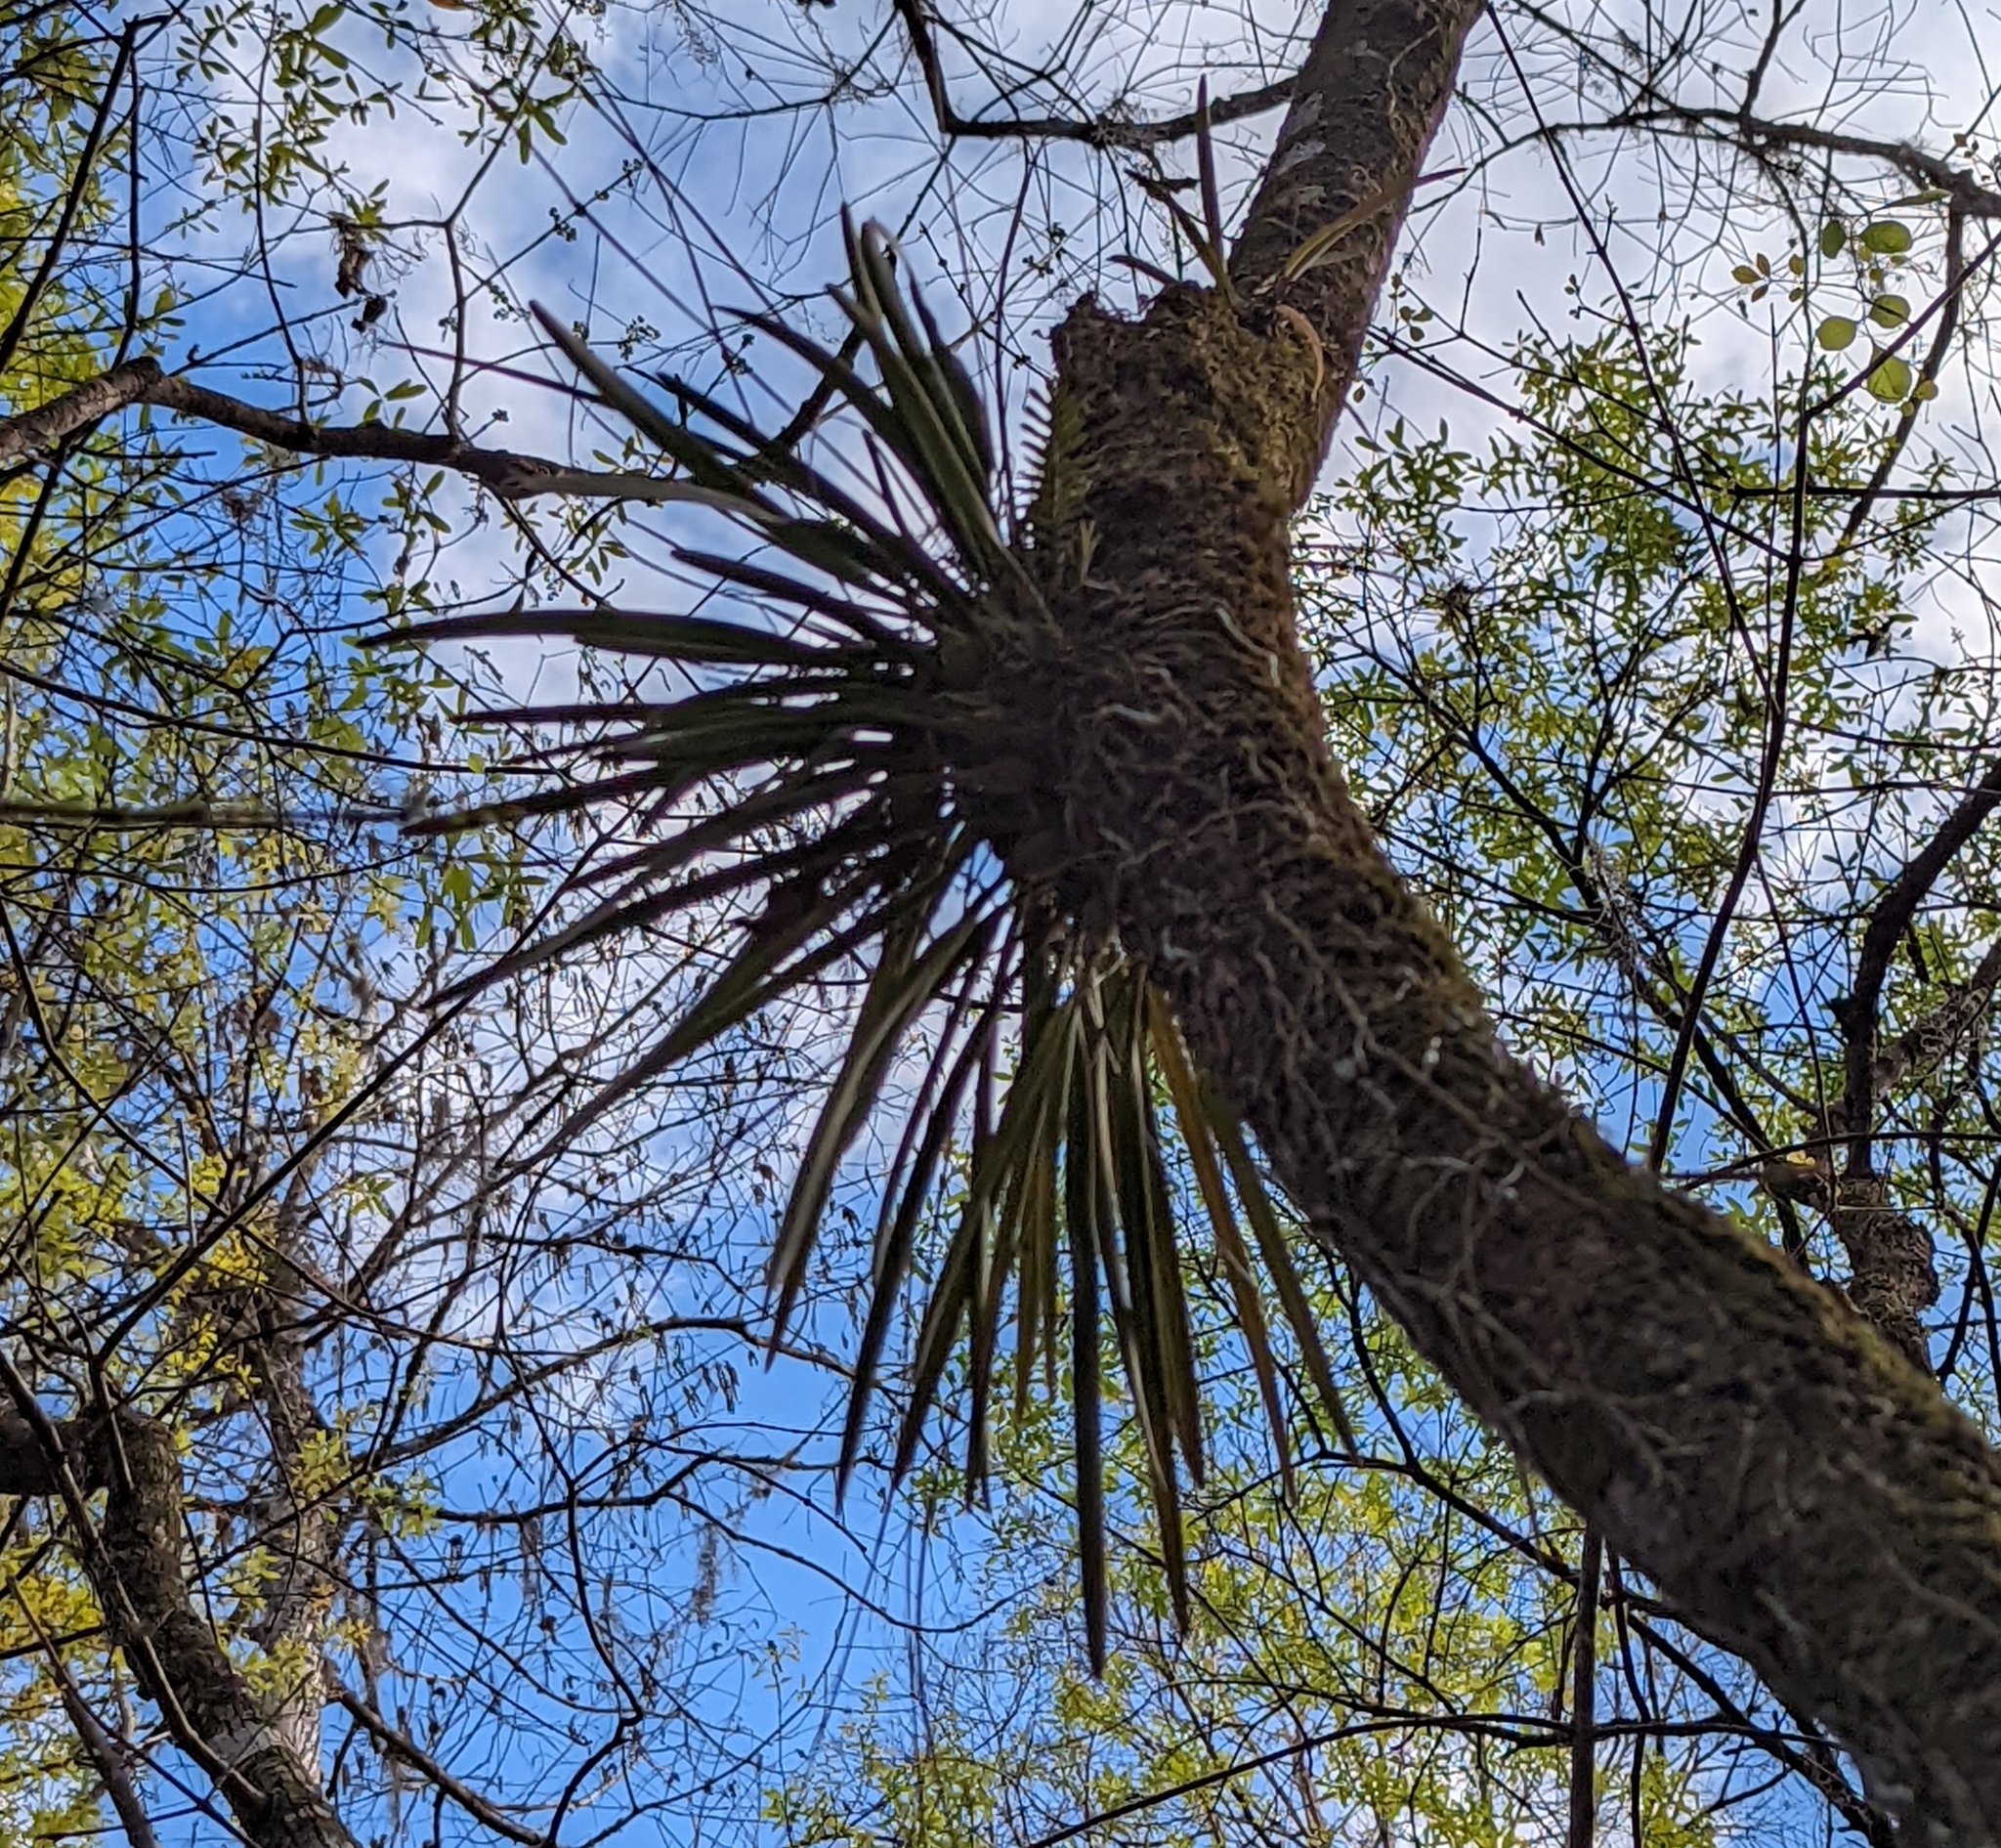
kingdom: Plantae
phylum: Tracheophyta
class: Liliopsida
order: Asparagales
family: Orchidaceae
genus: Encyclia
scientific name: Encyclia tampensis
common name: Florida butterfly orchid
